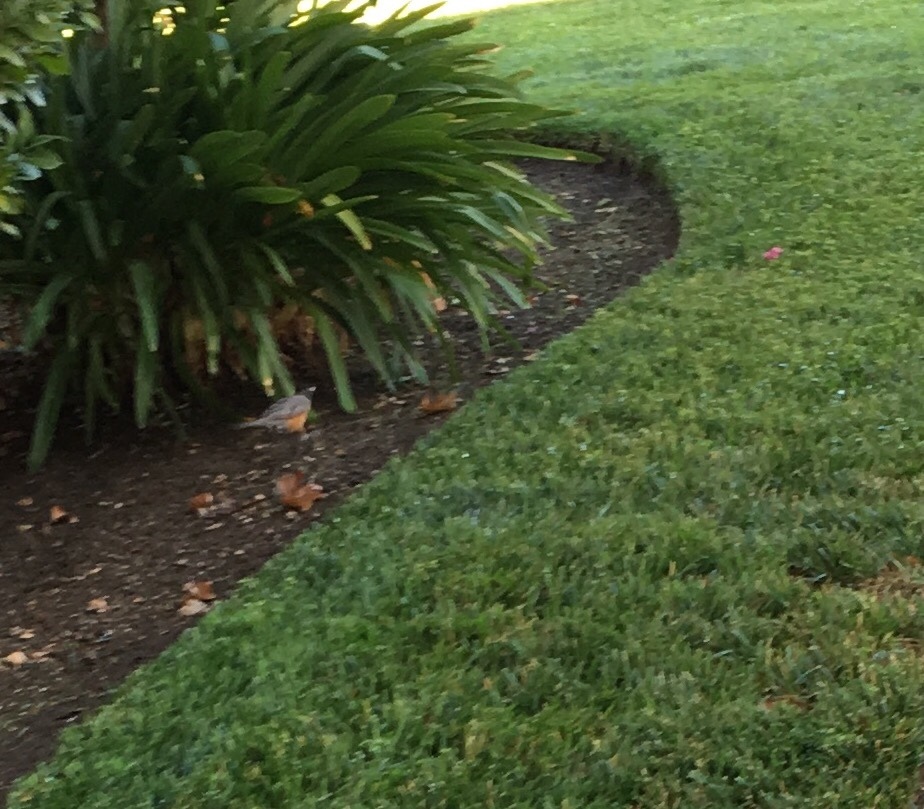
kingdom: Animalia
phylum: Chordata
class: Aves
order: Passeriformes
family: Turdidae
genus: Turdus
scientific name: Turdus migratorius
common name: American robin
